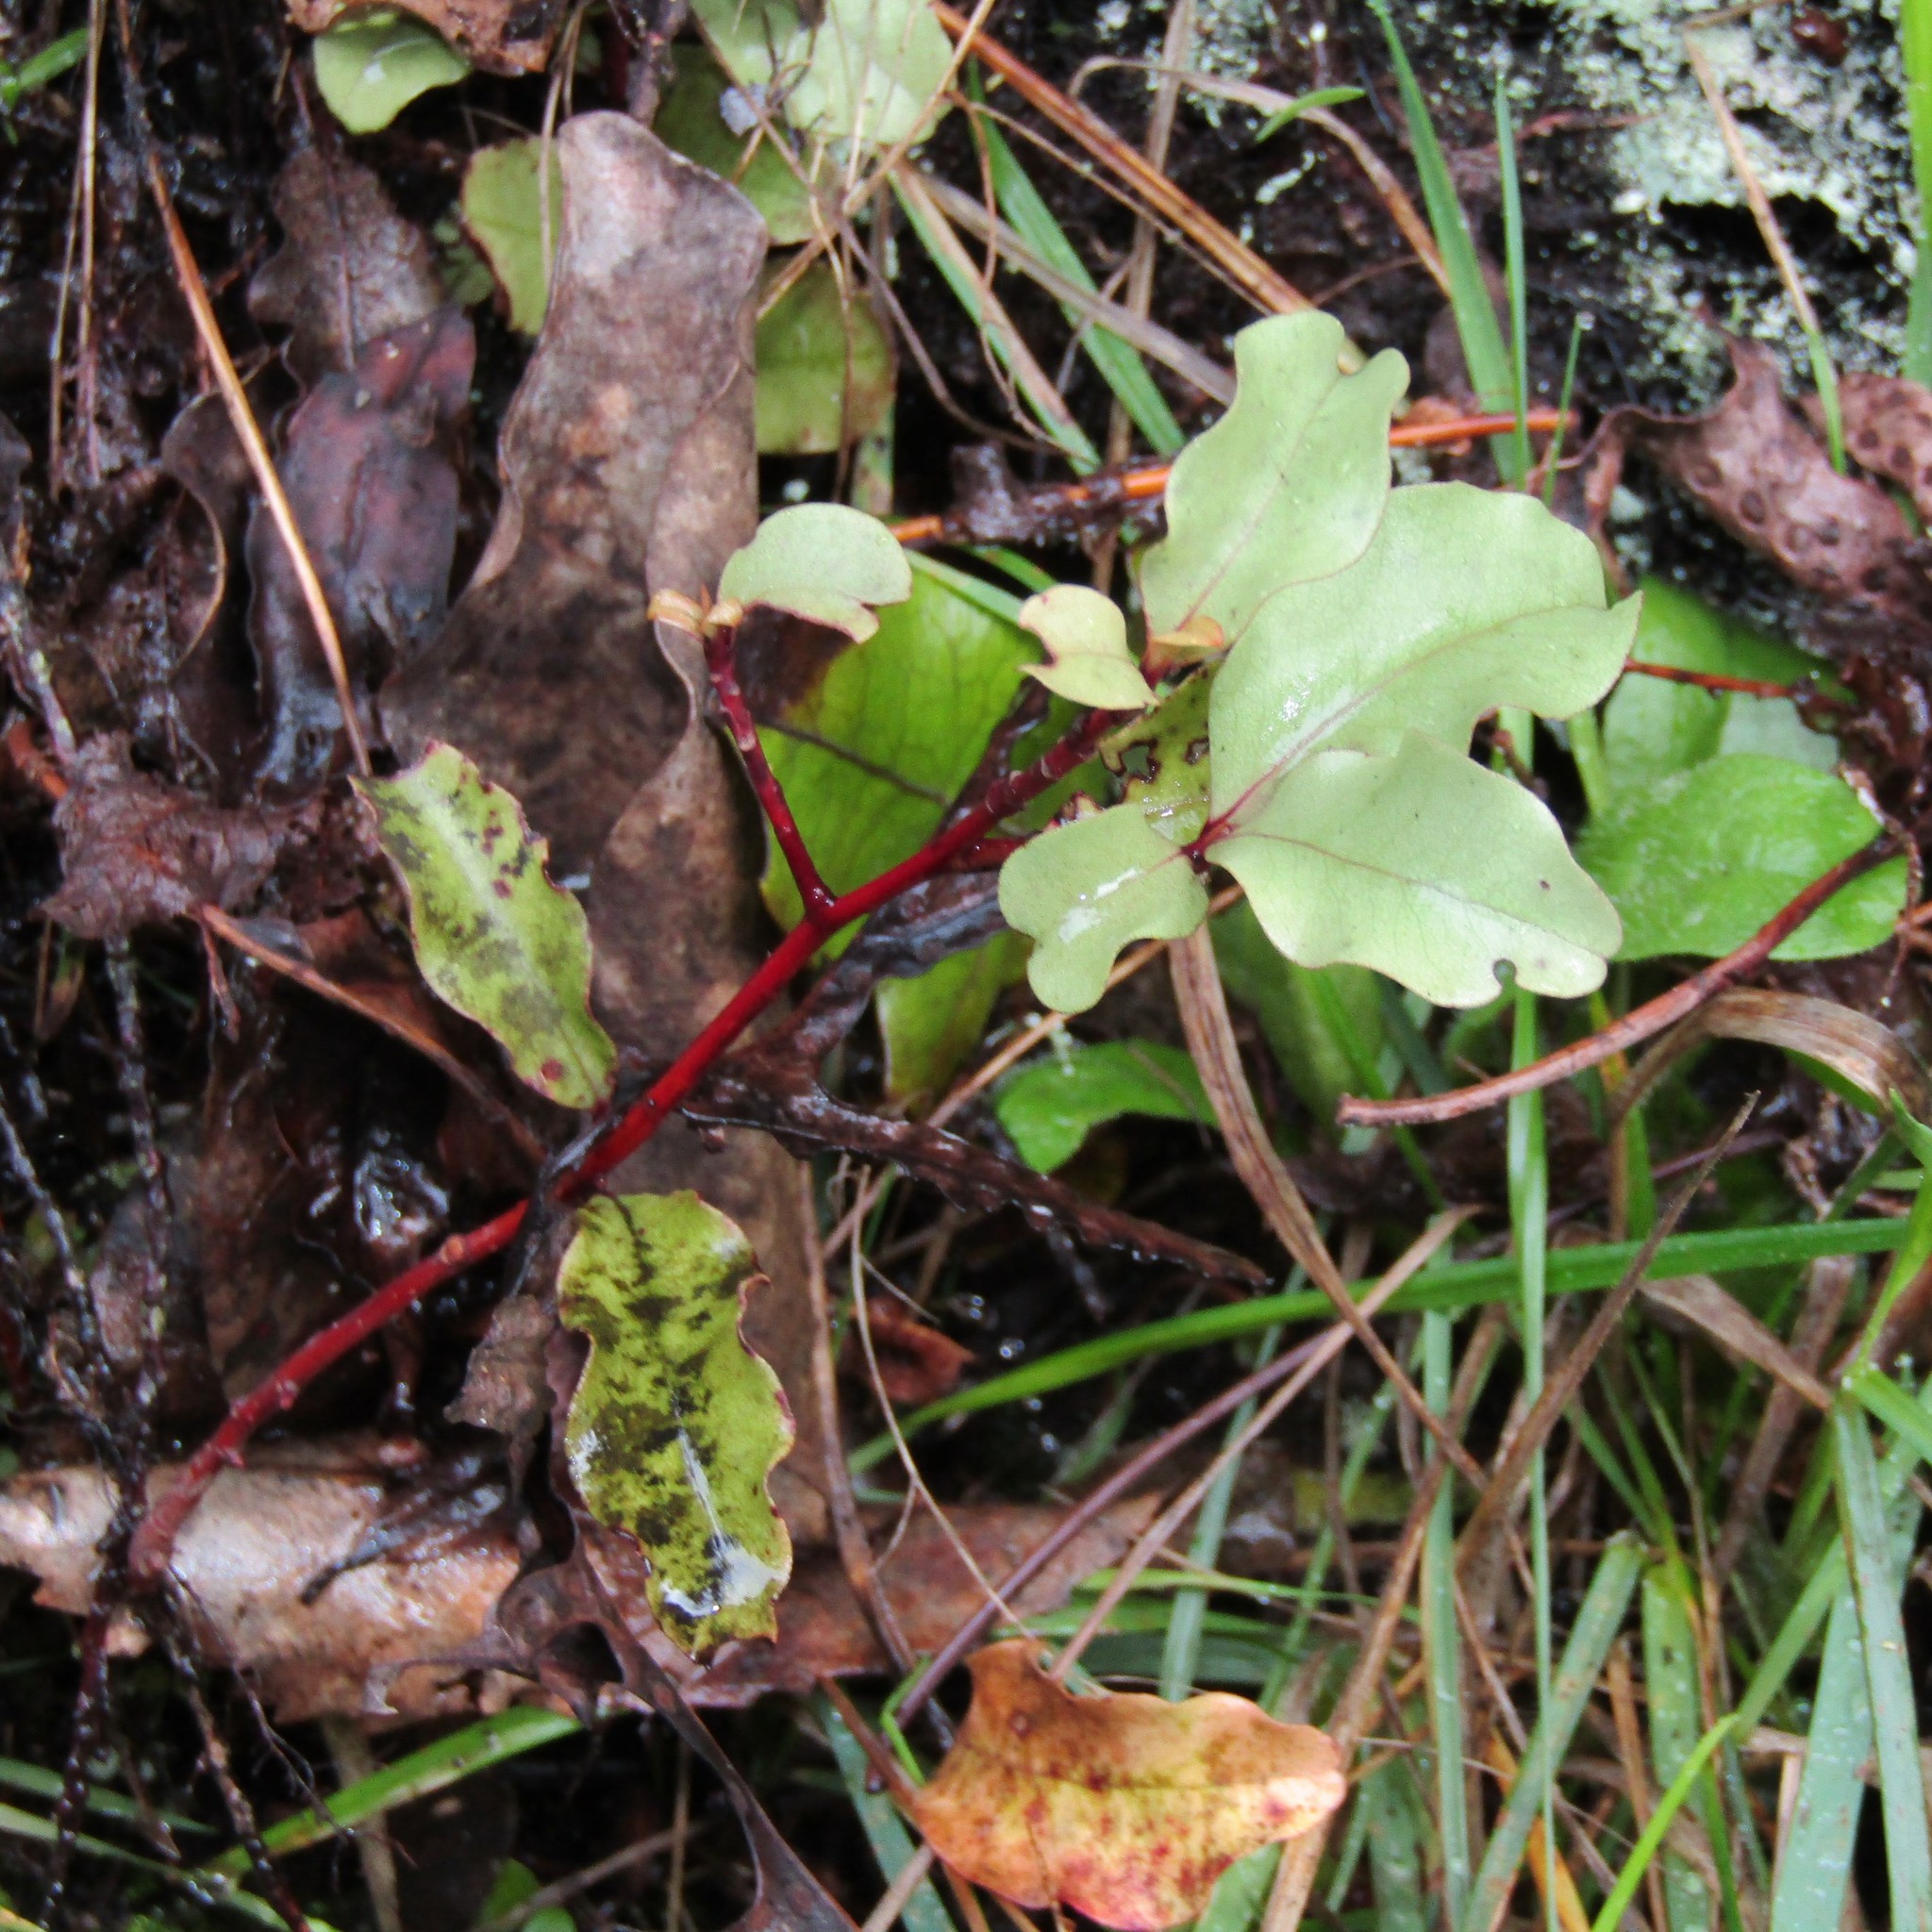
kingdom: Plantae
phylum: Tracheophyta
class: Magnoliopsida
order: Ericales
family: Primulaceae
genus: Myrsine
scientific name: Myrsine australis
